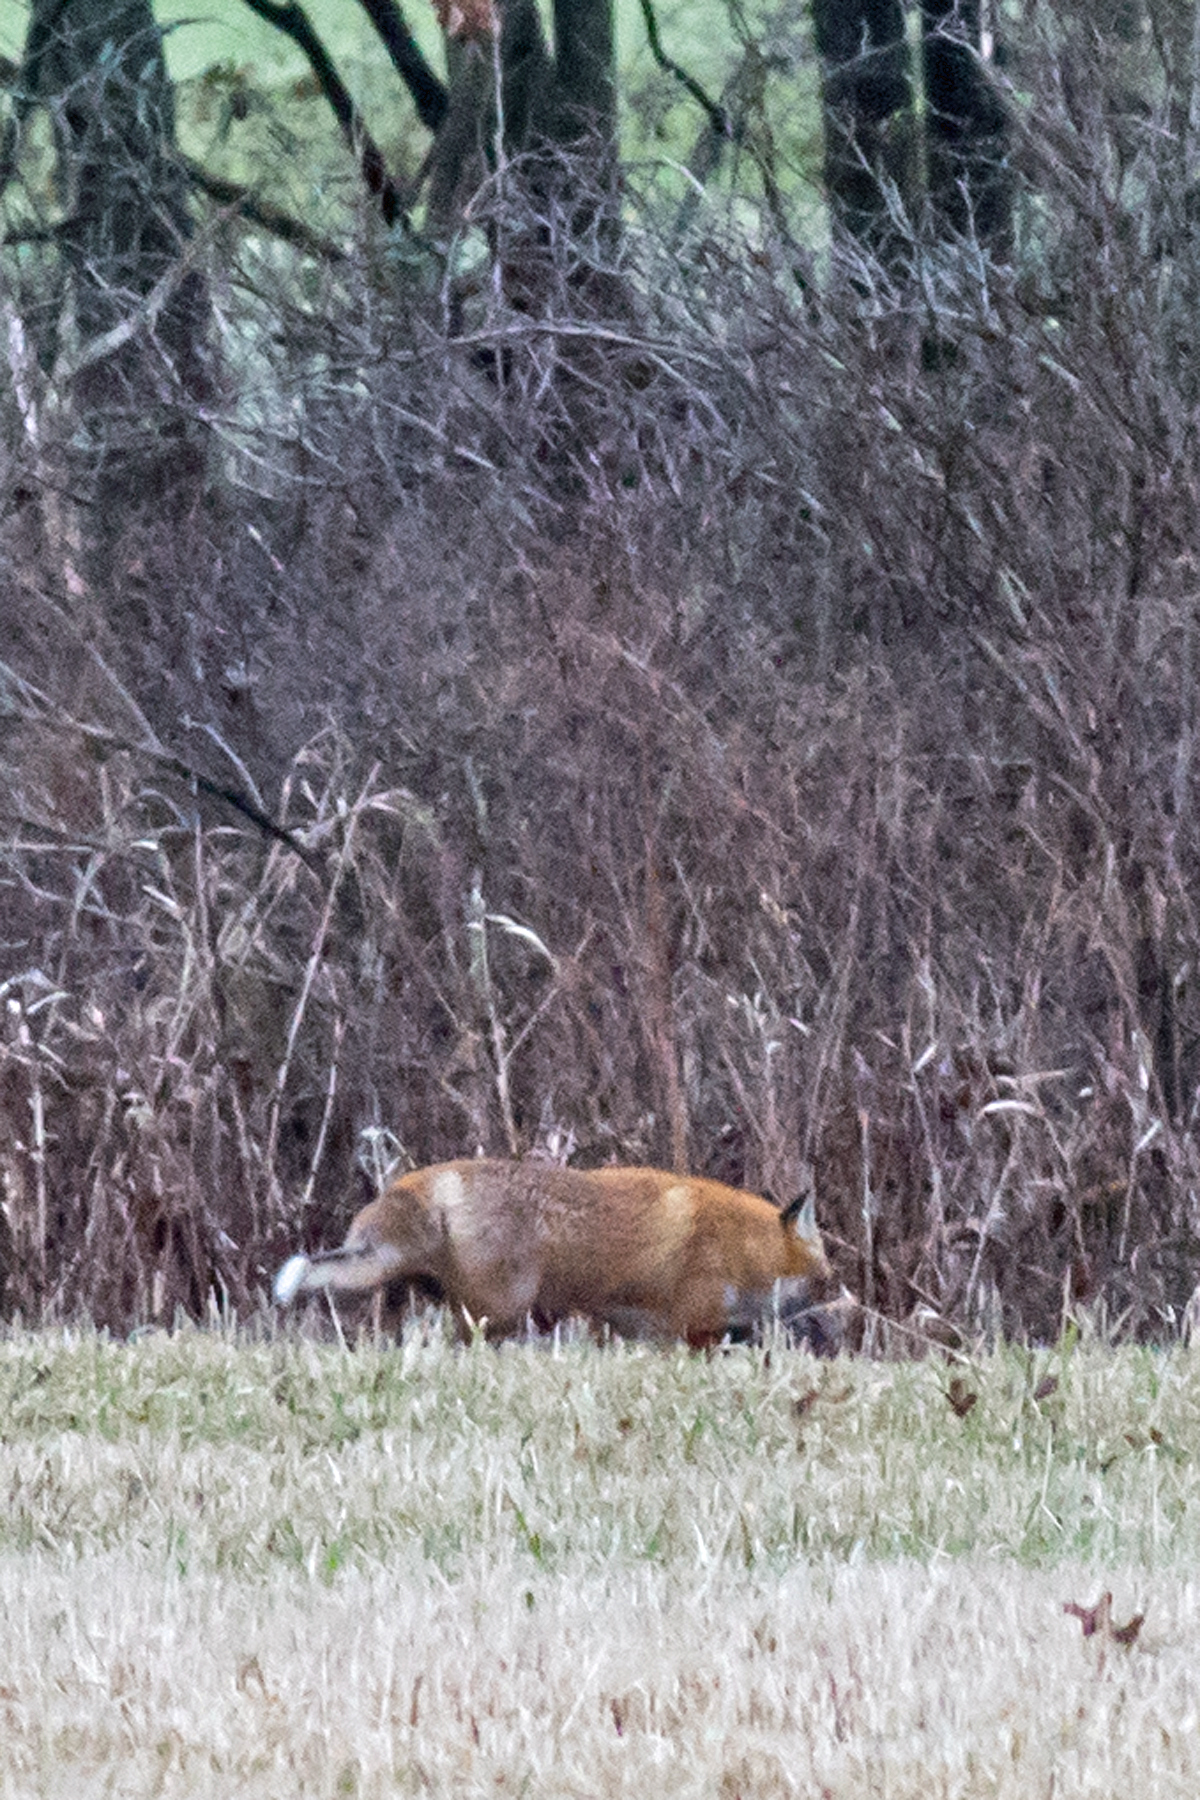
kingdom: Animalia
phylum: Chordata
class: Mammalia
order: Carnivora
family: Canidae
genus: Vulpes
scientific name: Vulpes vulpes
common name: Red fox
